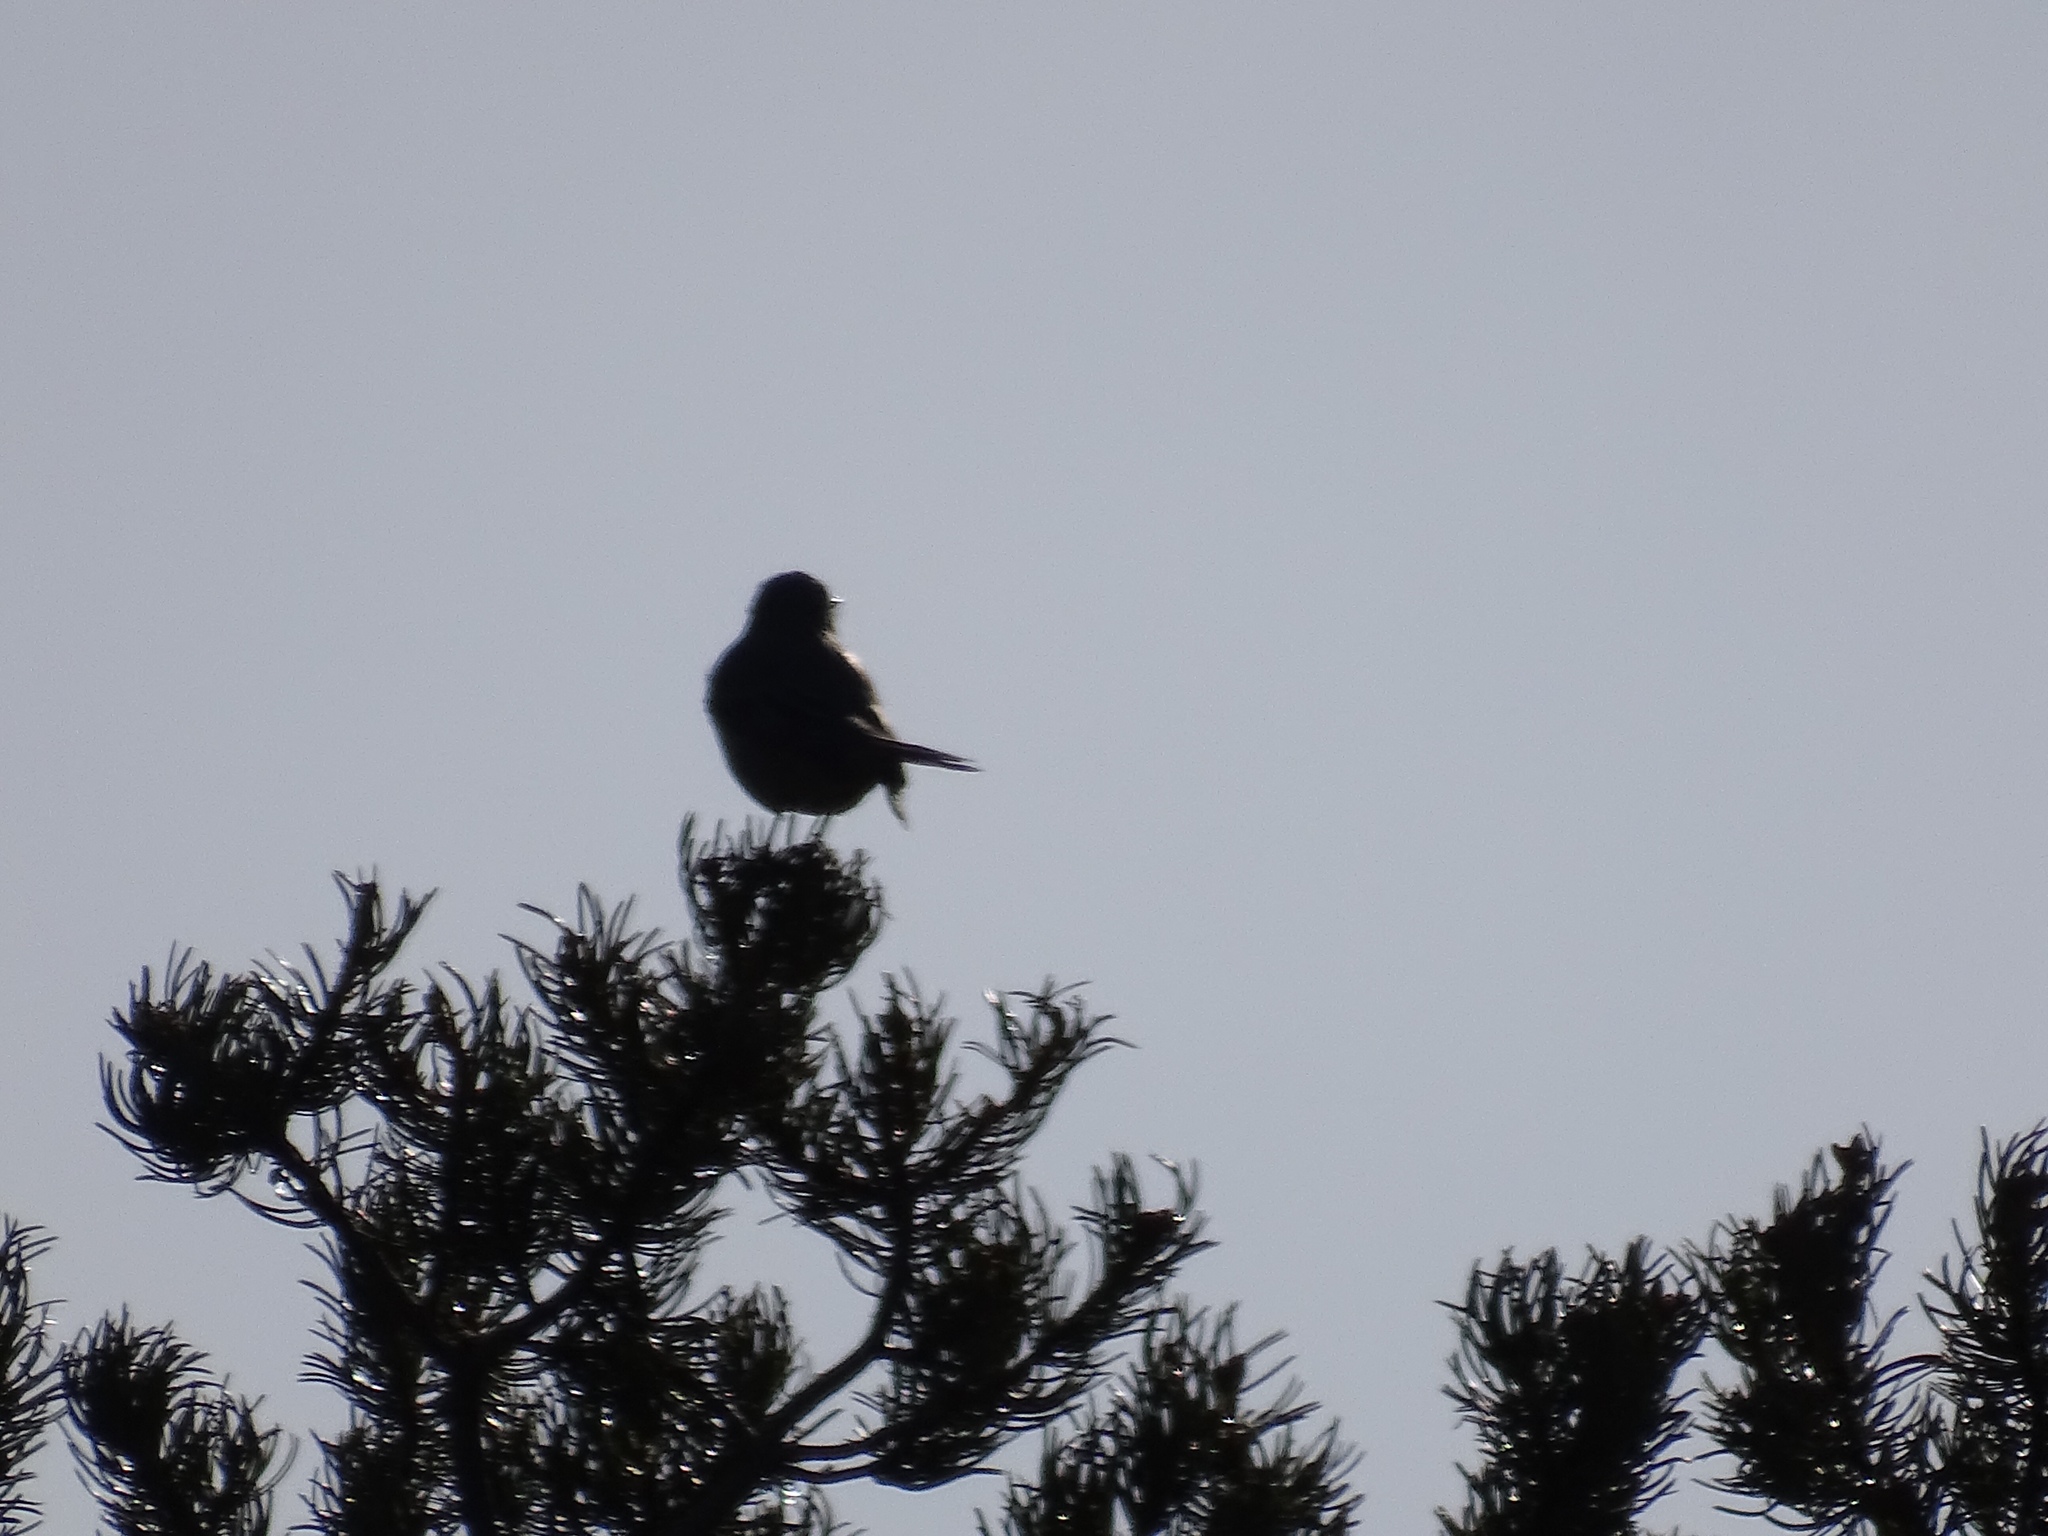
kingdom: Animalia
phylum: Chordata
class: Aves
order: Passeriformes
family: Turdidae
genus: Myadestes
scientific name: Myadestes townsendi
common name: Townsend's solitaire
